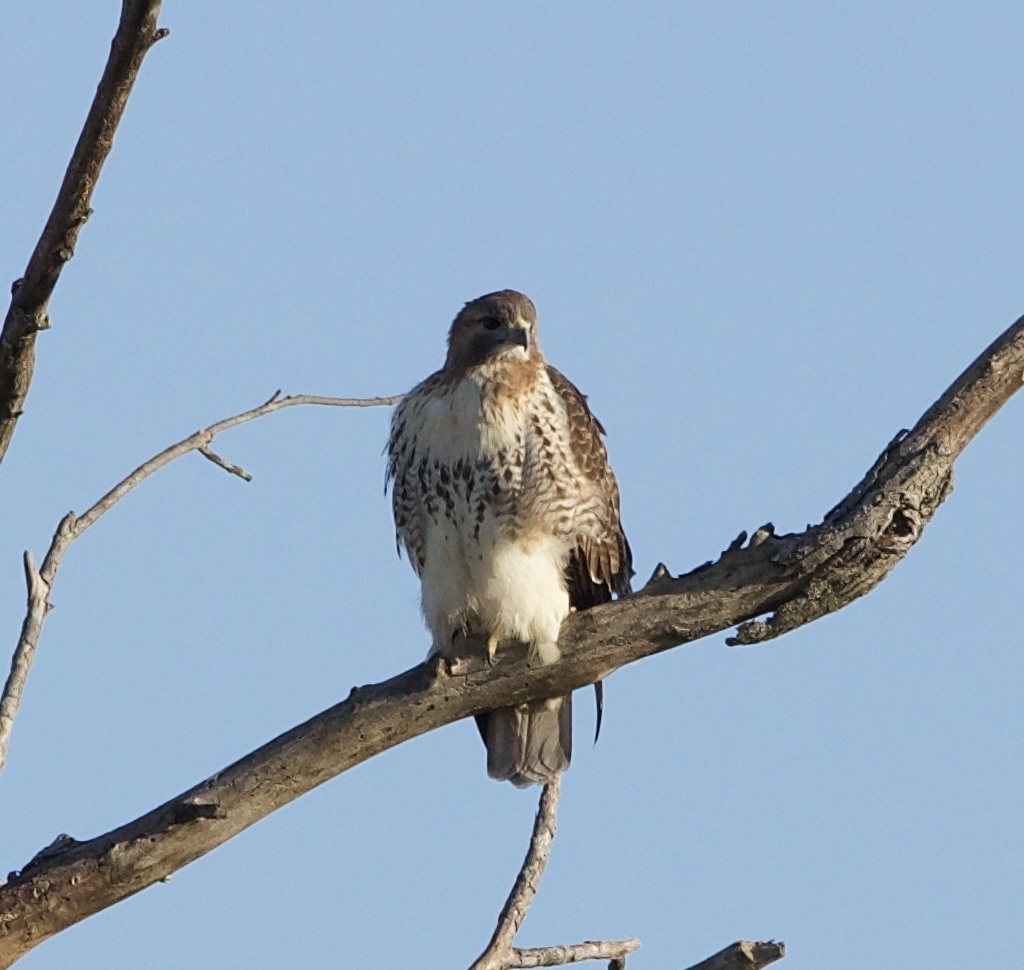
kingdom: Animalia
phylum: Chordata
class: Aves
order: Accipitriformes
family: Accipitridae
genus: Buteo
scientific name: Buteo jamaicensis
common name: Red-tailed hawk
